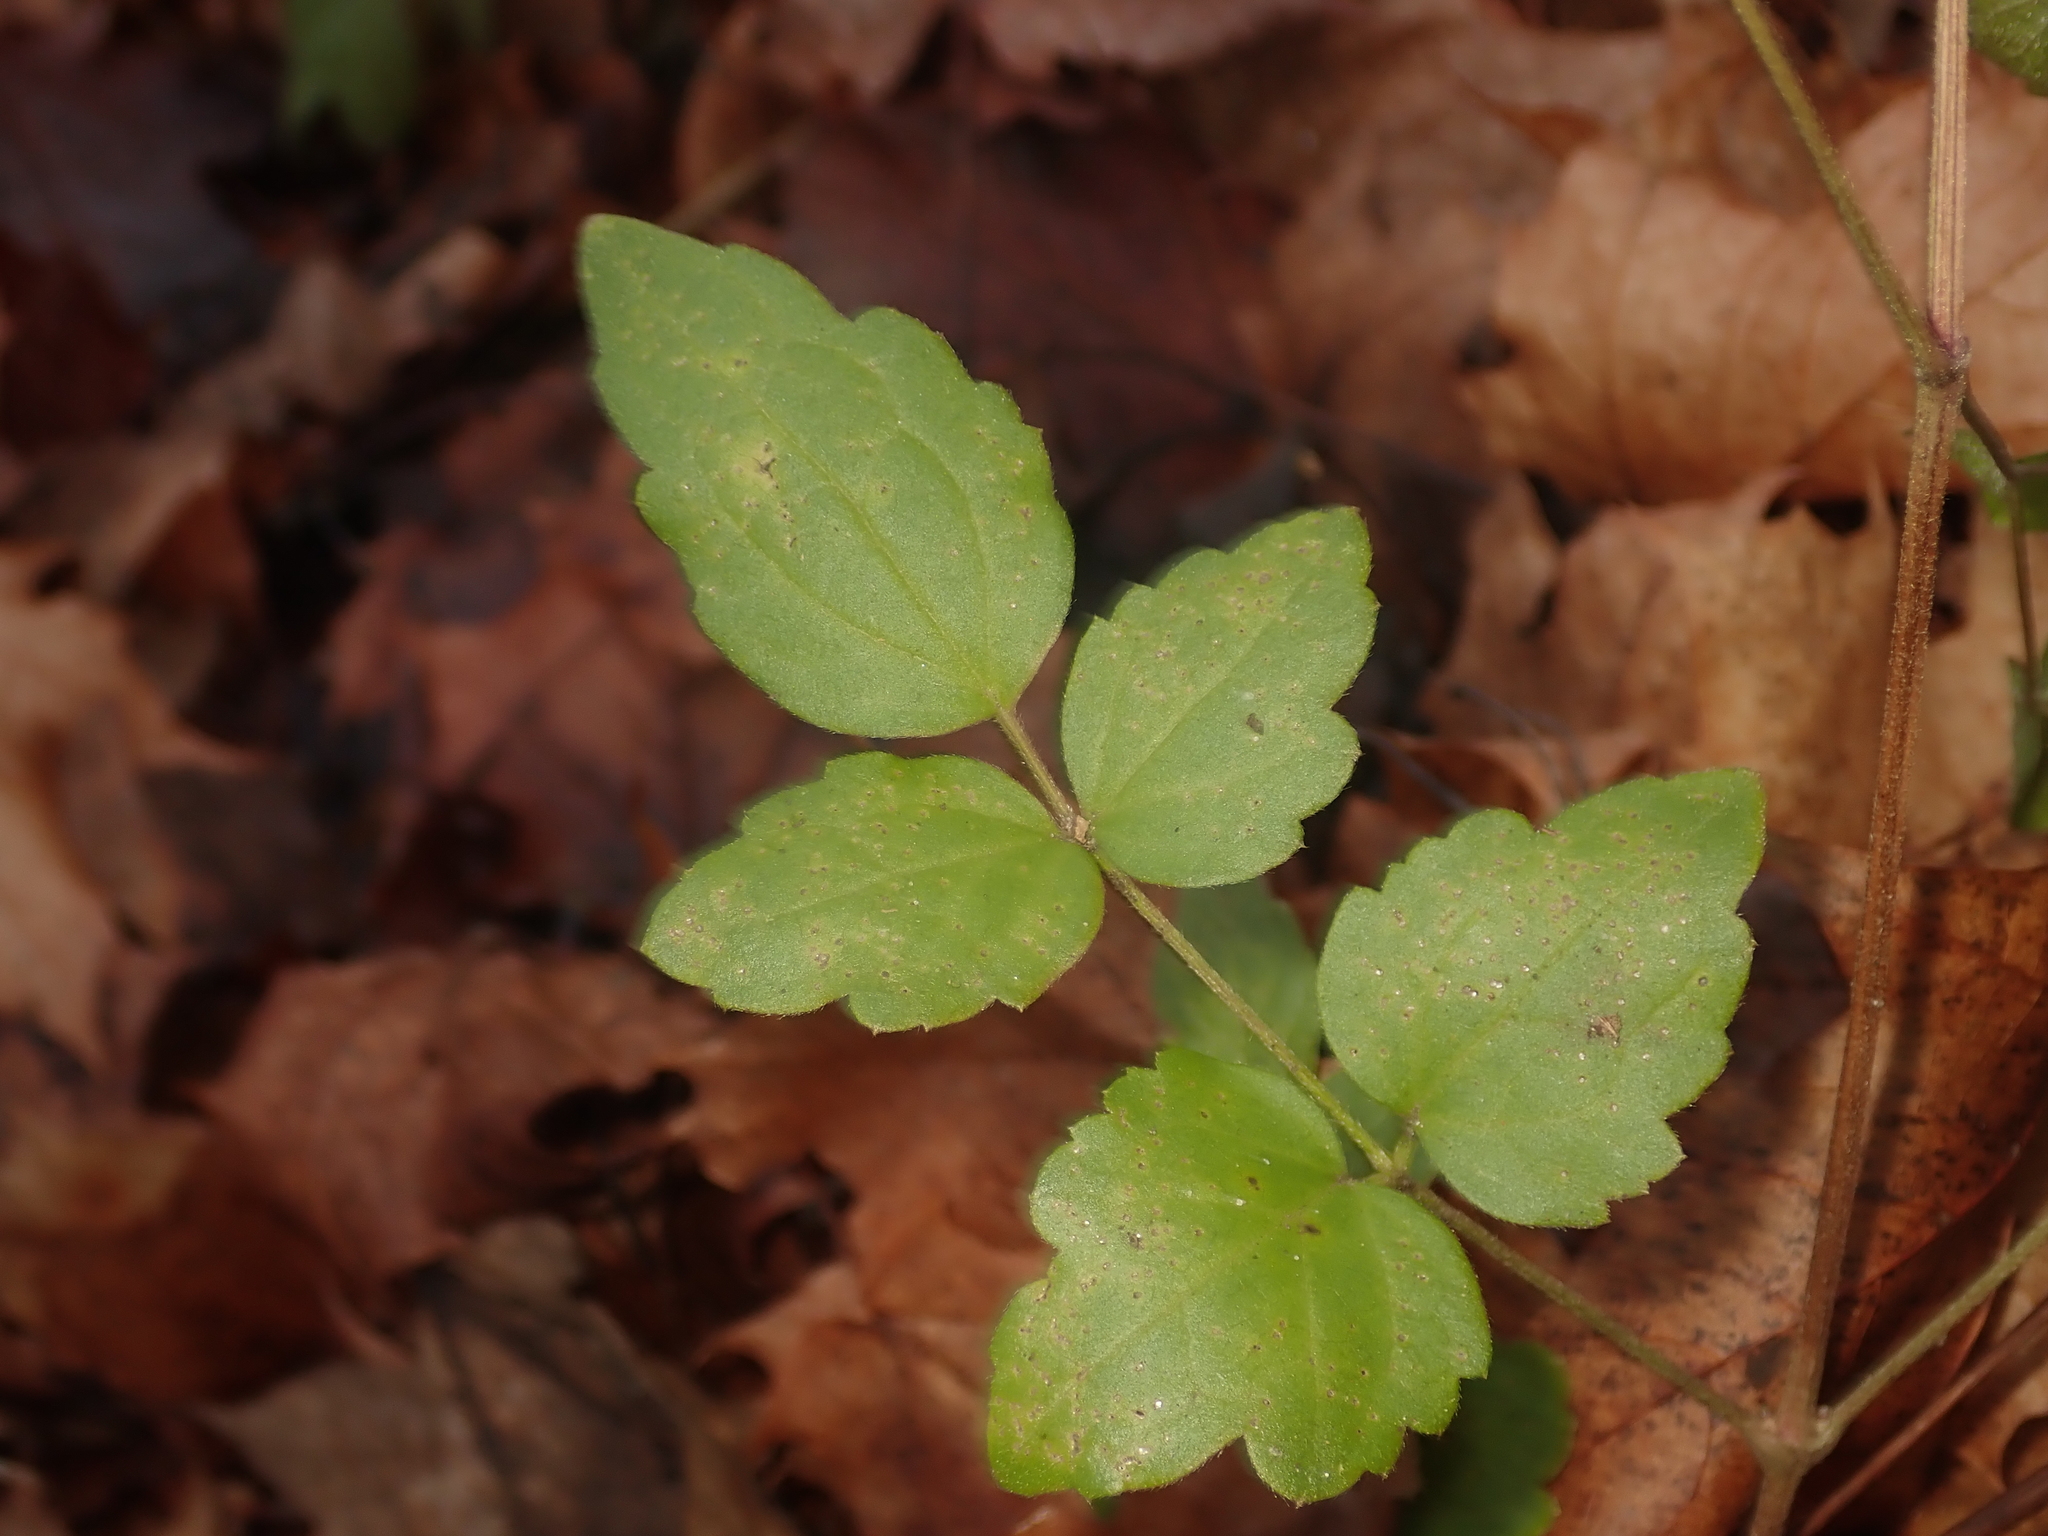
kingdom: Plantae
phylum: Tracheophyta
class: Magnoliopsida
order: Ranunculales
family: Ranunculaceae
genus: Clematis
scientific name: Clematis vitalba
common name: Evergreen clematis
